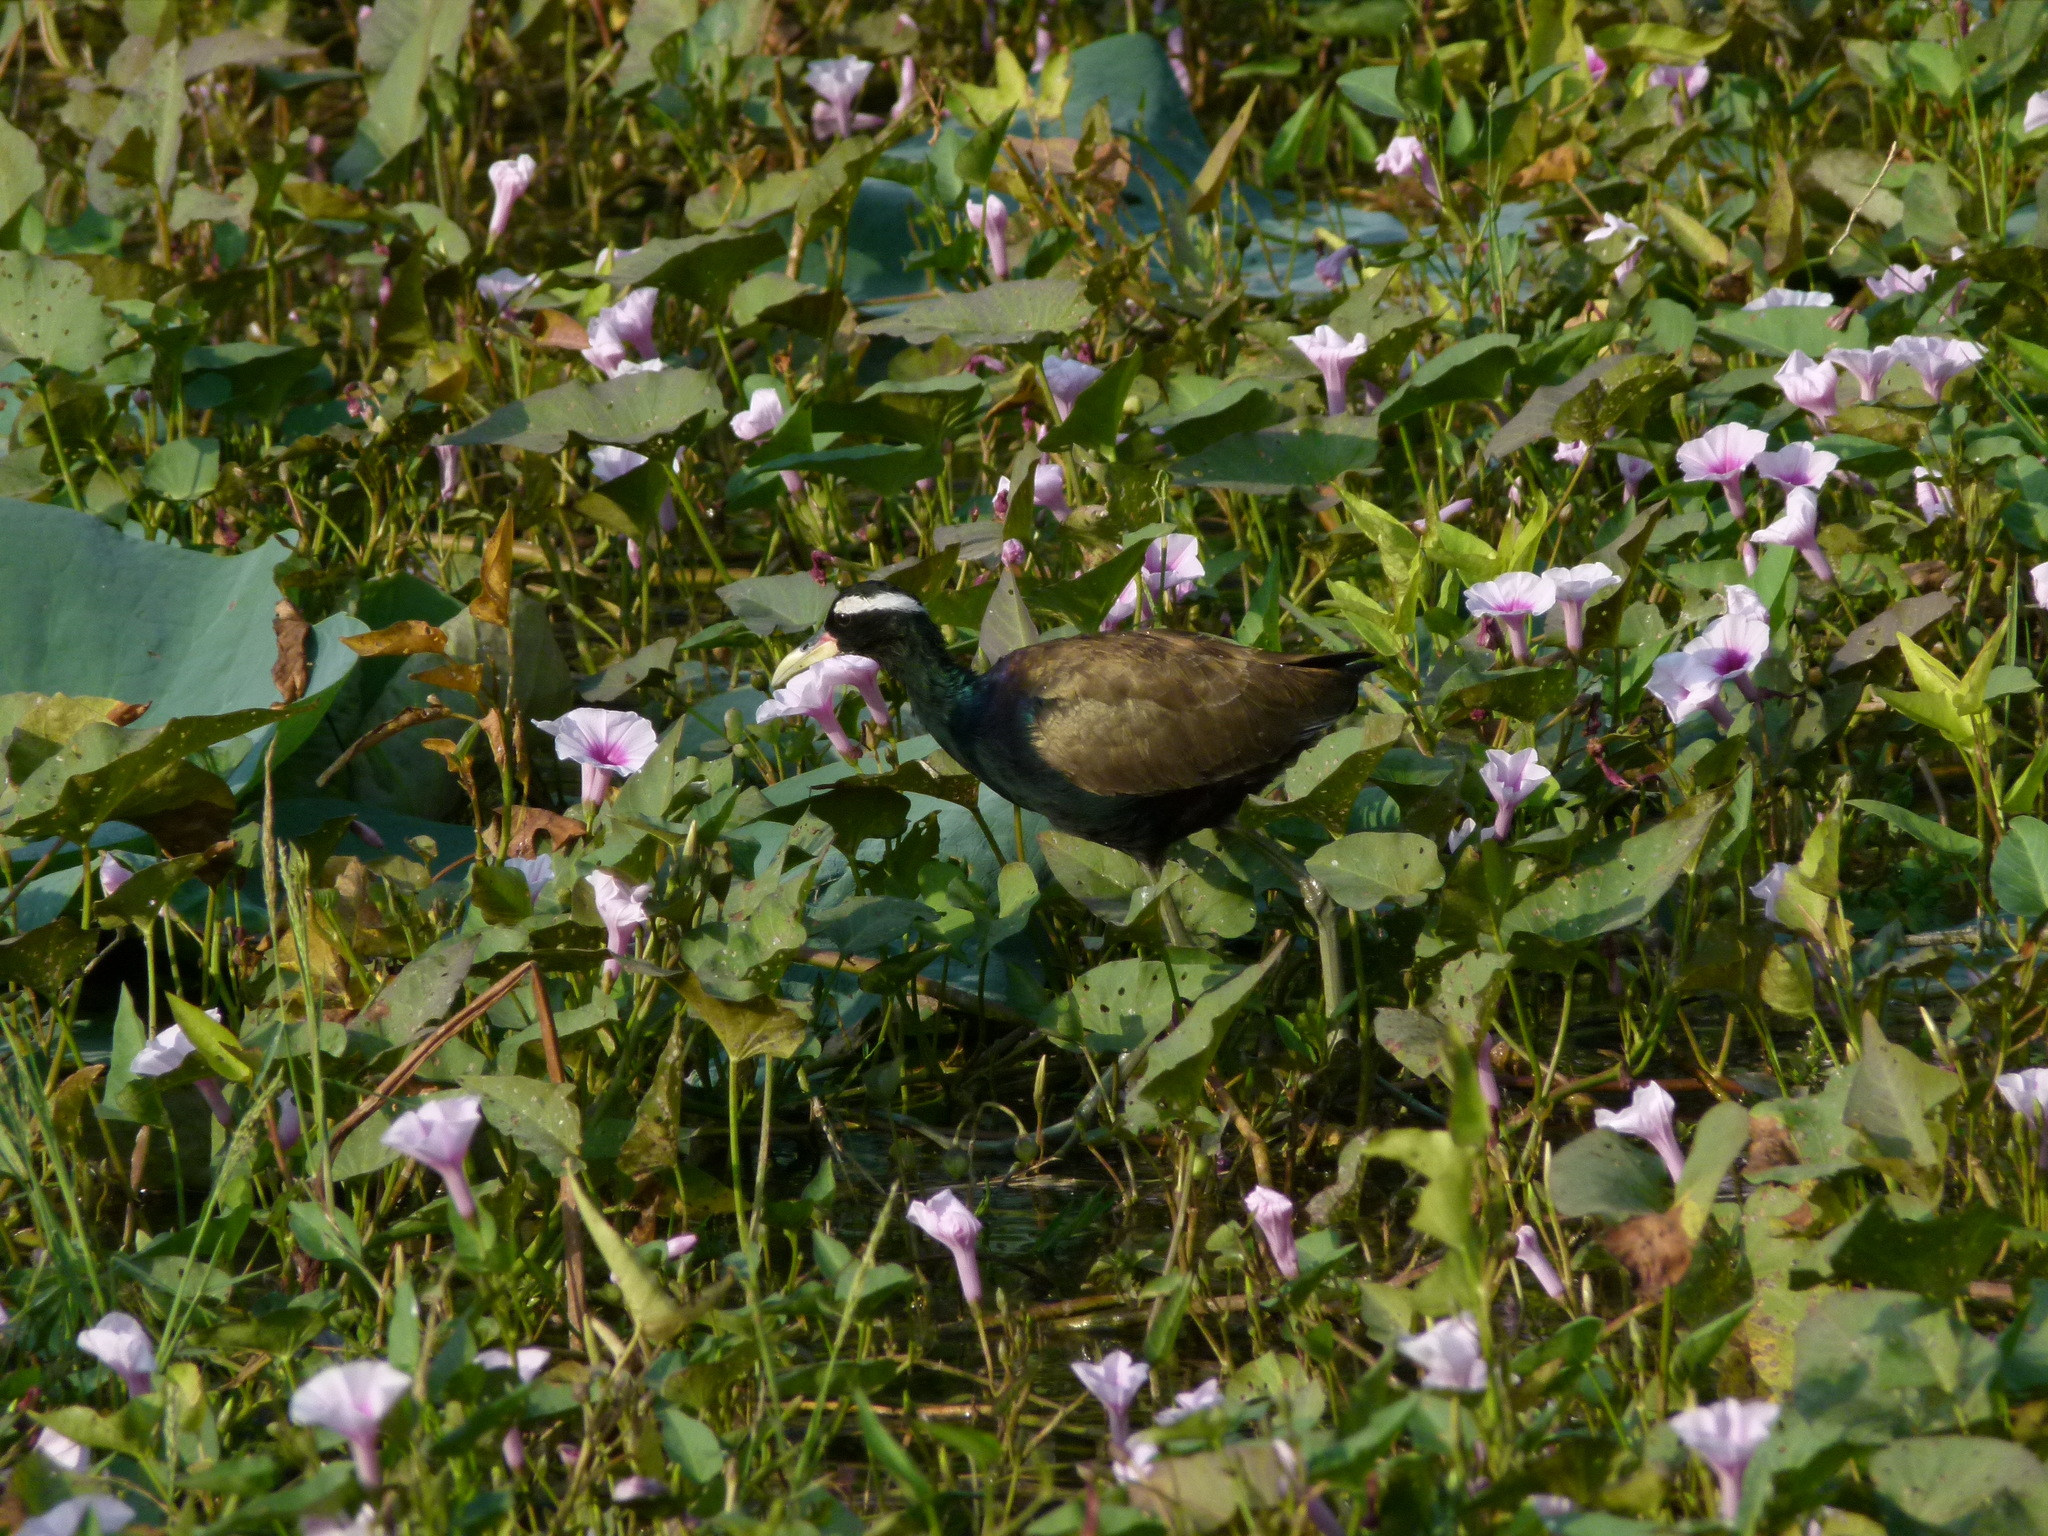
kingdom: Animalia
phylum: Chordata
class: Aves
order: Charadriiformes
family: Jacanidae
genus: Metopidius
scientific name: Metopidius indicus
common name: Bronze-winged jacana
